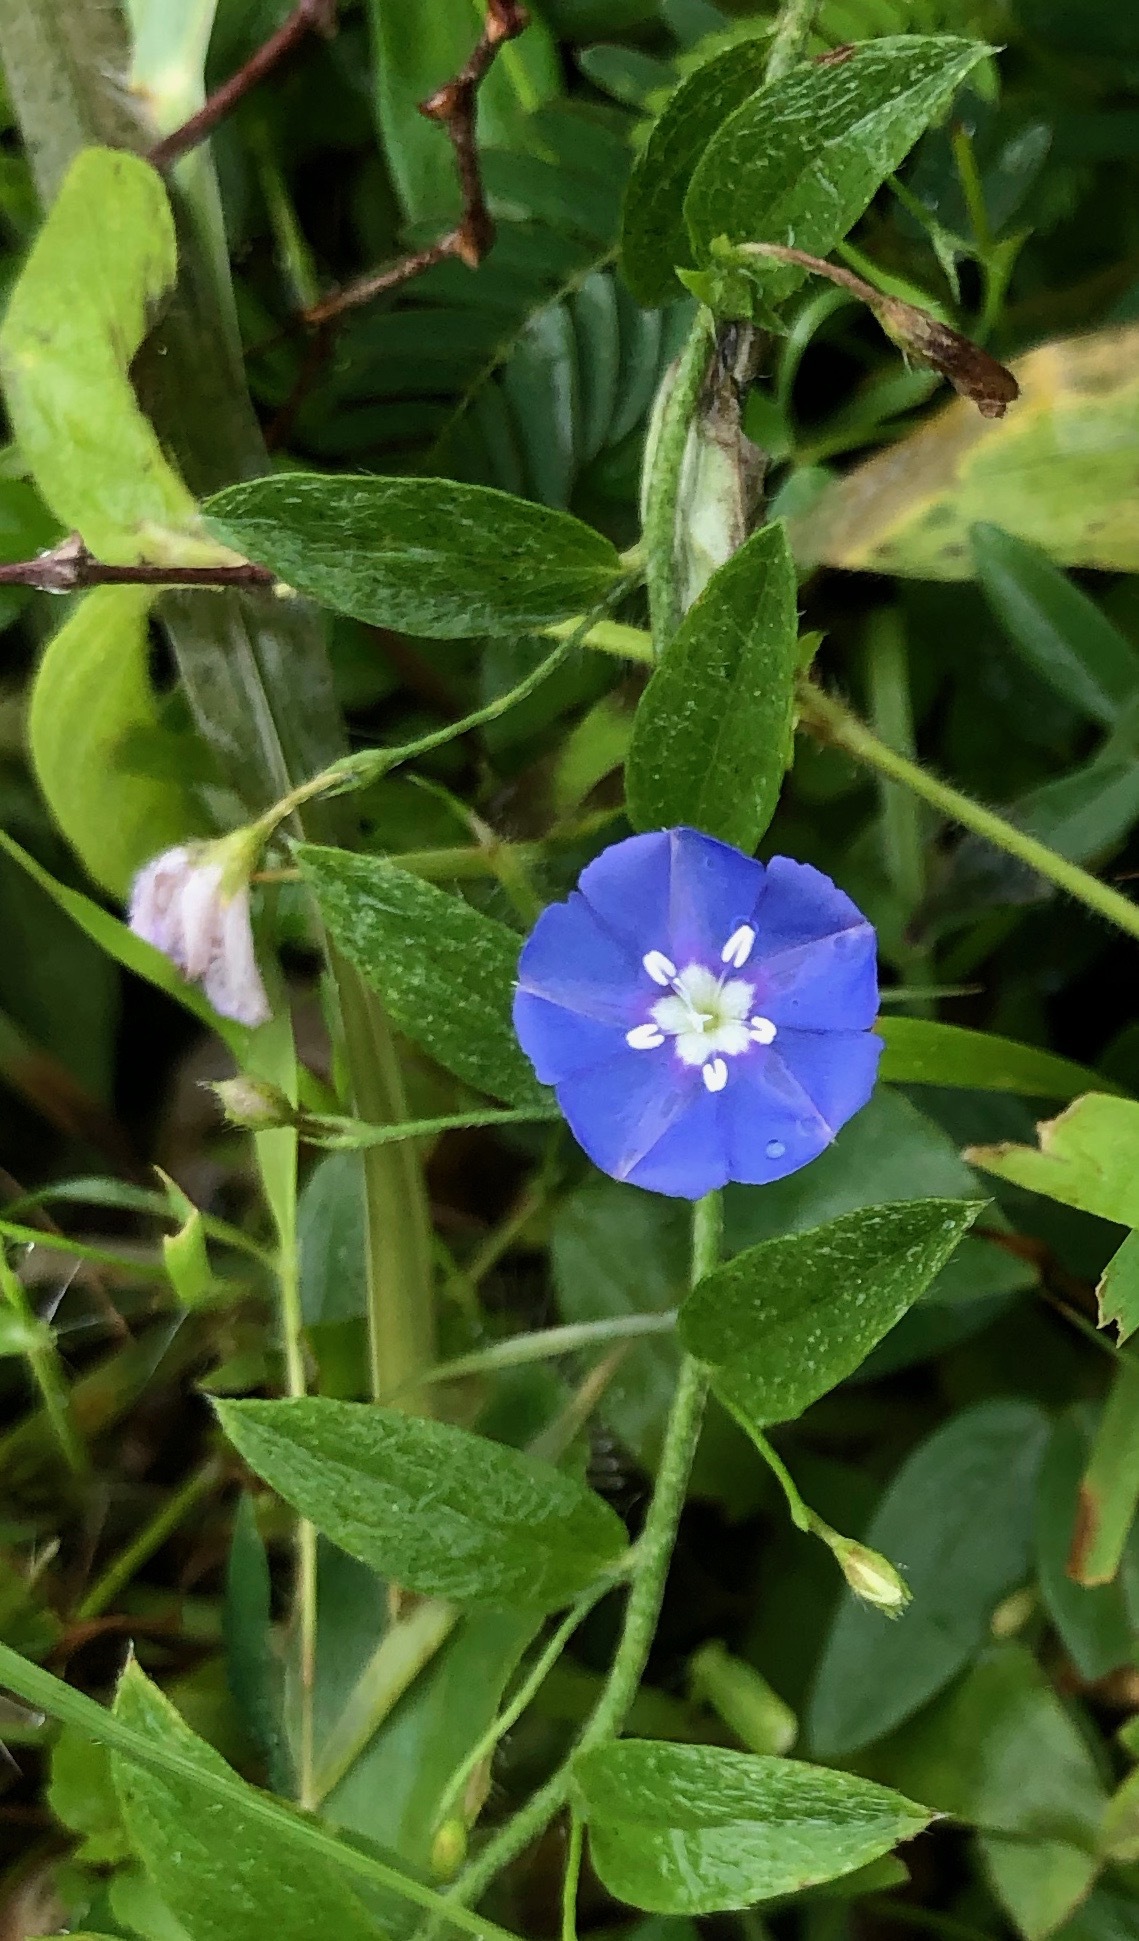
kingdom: Plantae
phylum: Tracheophyta
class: Magnoliopsida
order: Solanales
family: Convolvulaceae
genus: Evolvulus
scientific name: Evolvulus alsinoides
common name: Slender dwarf morning-glory
